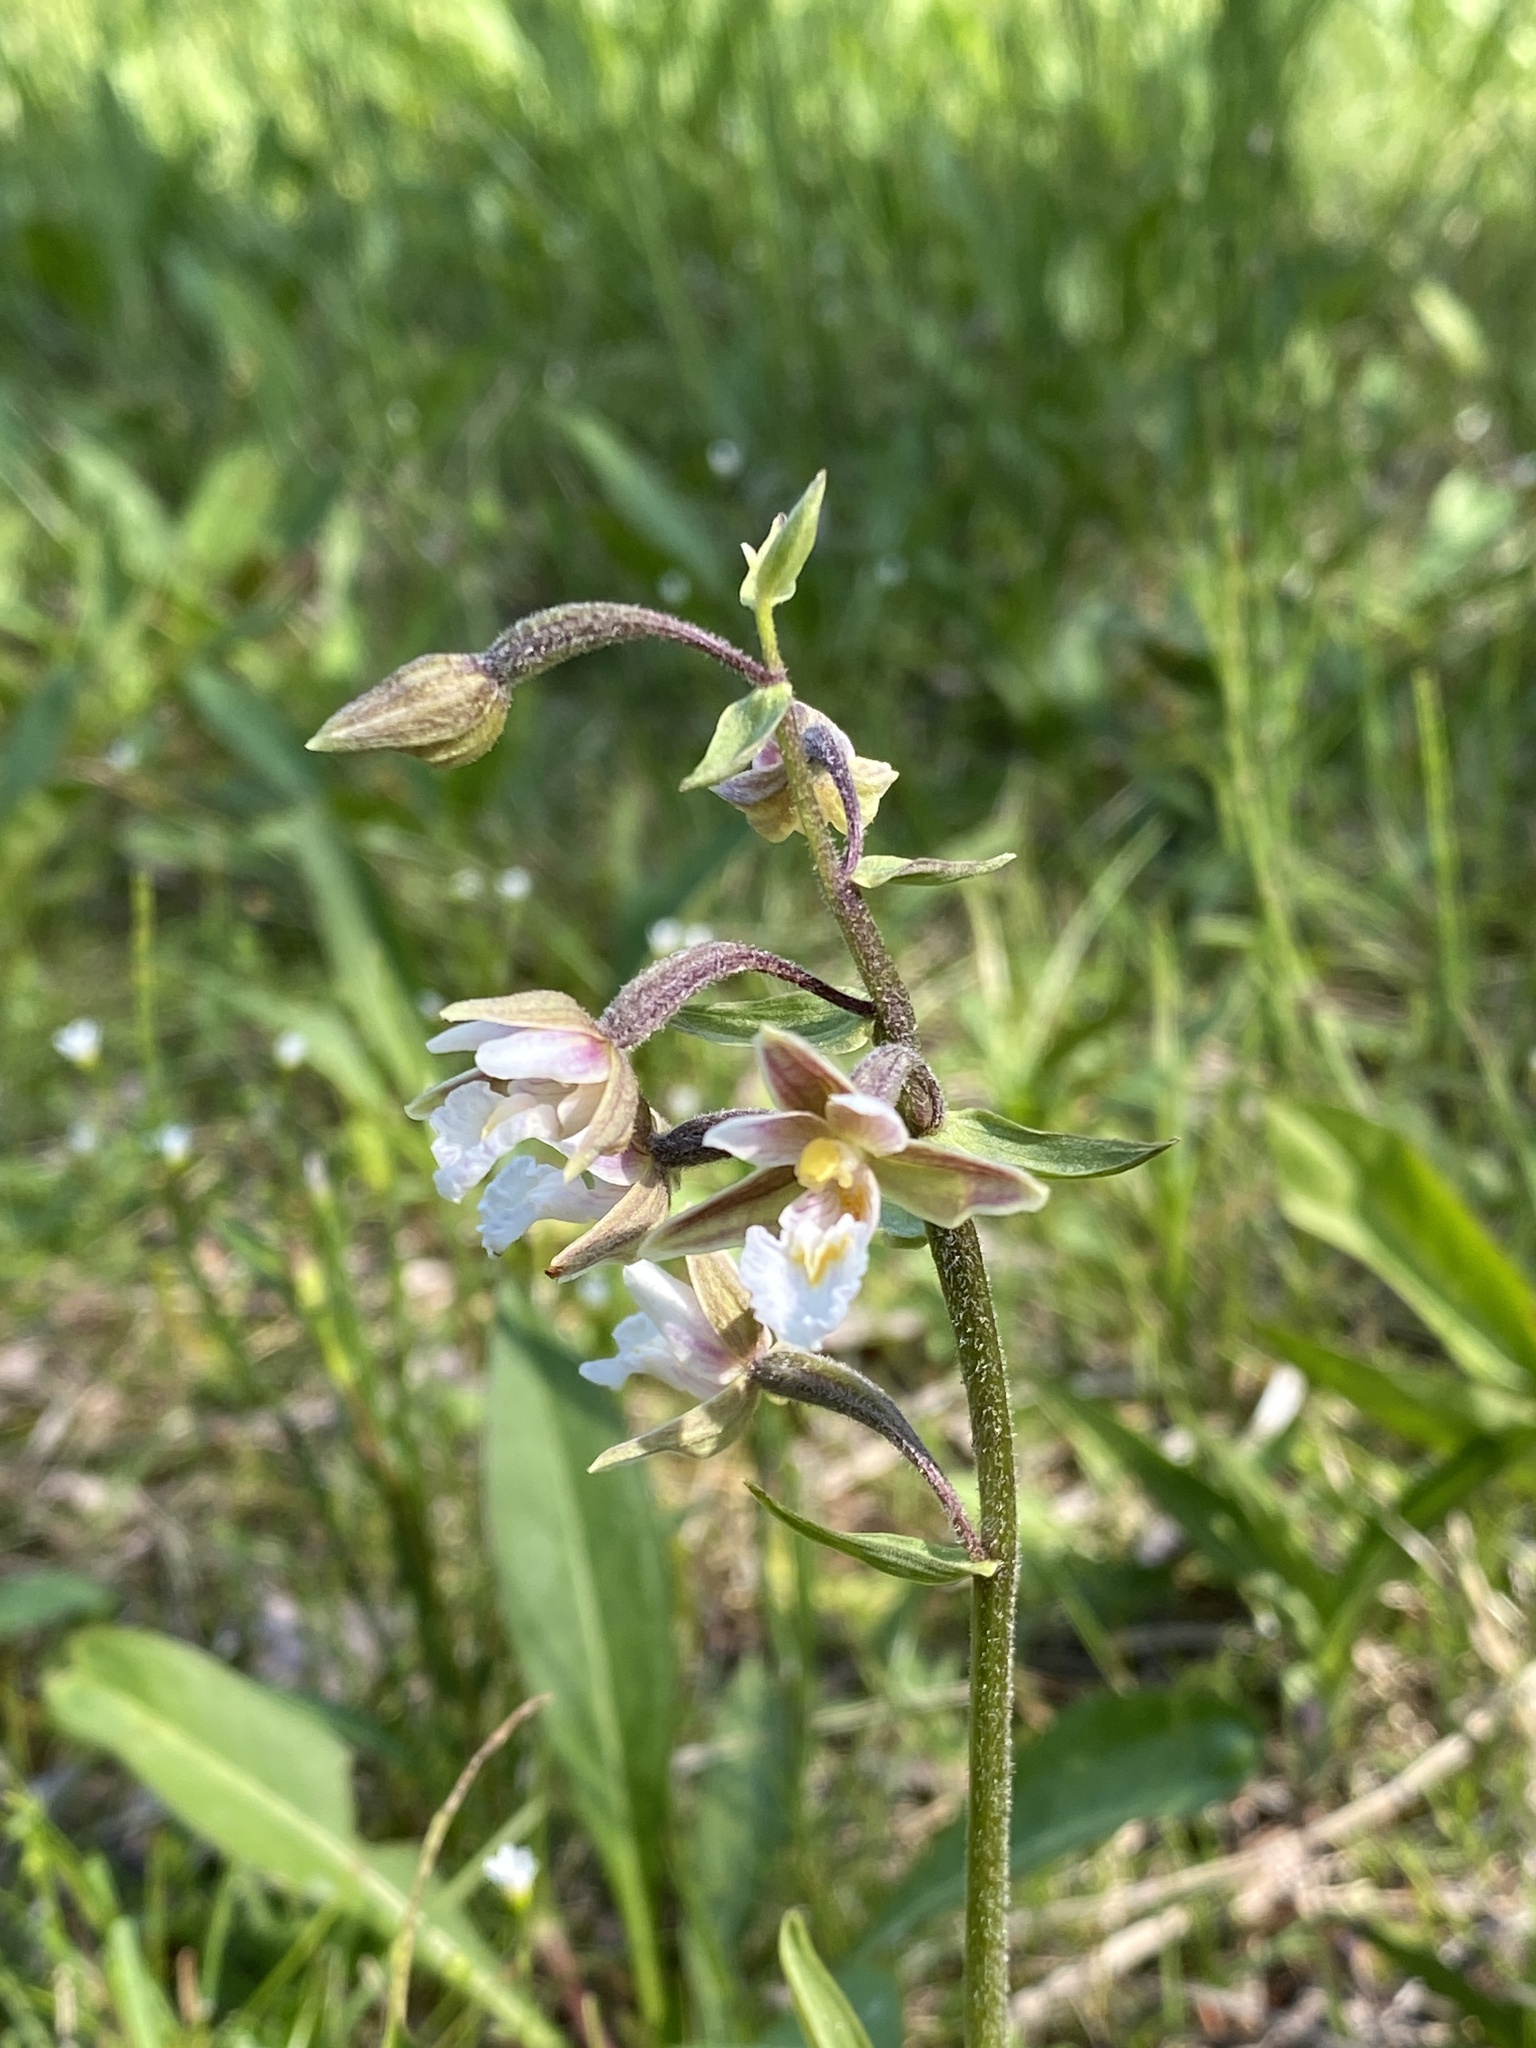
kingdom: Plantae
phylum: Tracheophyta
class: Liliopsida
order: Asparagales
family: Orchidaceae
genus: Epipactis
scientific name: Epipactis palustris
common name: Marsh helleborine
